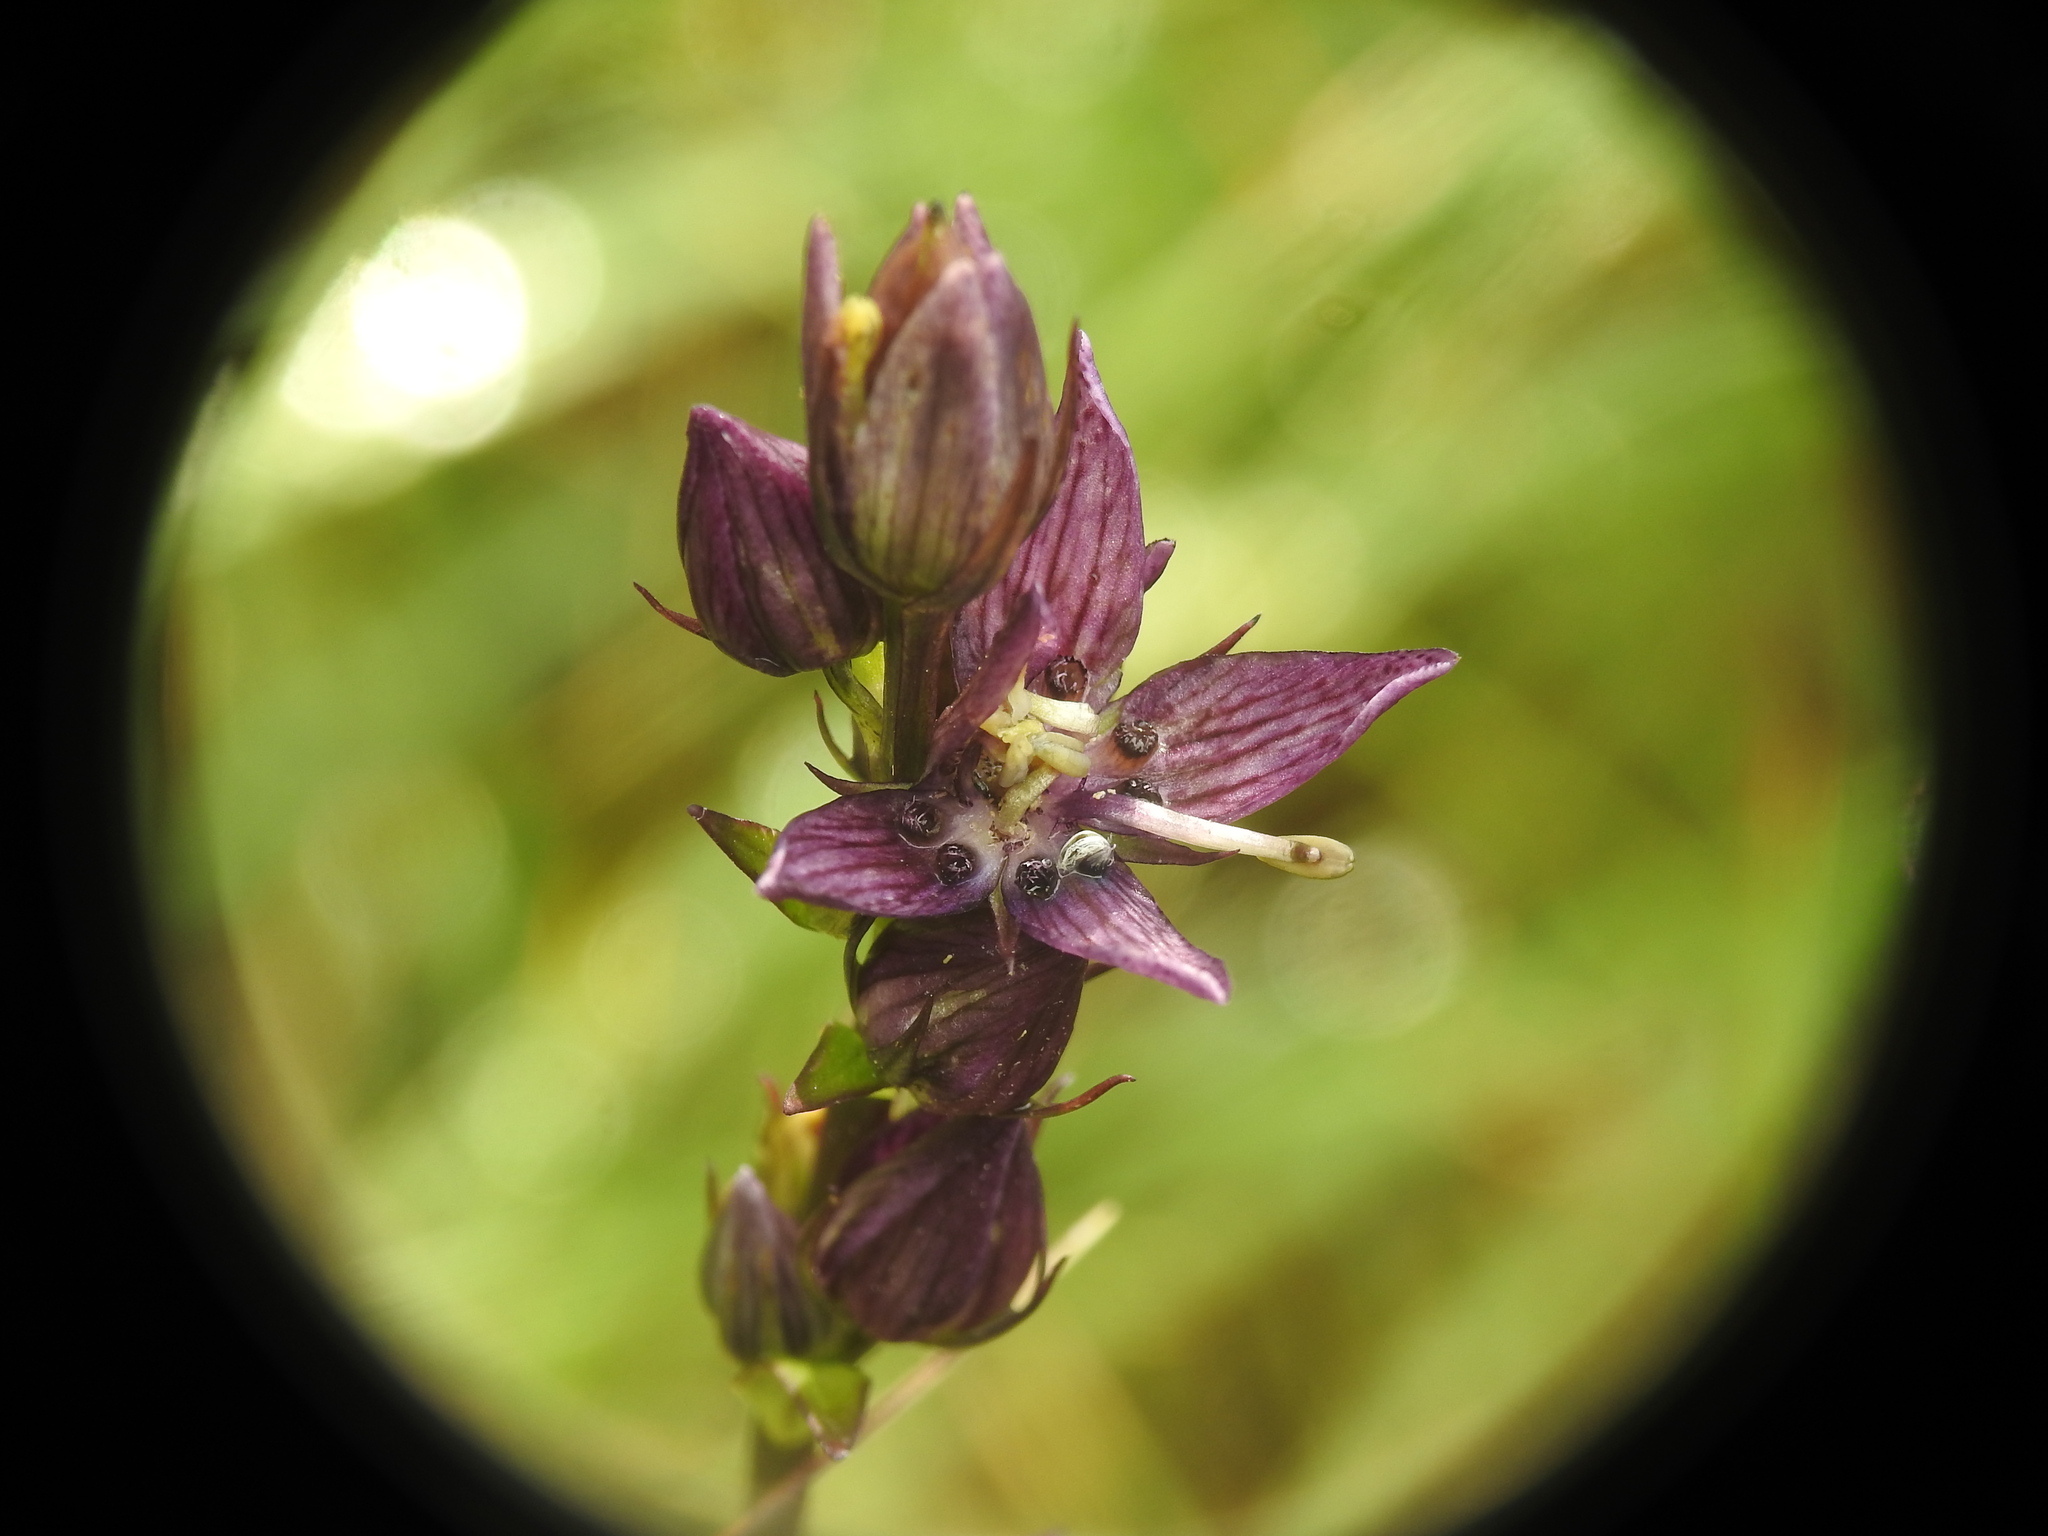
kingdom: Plantae
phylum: Tracheophyta
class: Magnoliopsida
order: Gentianales
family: Gentianaceae
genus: Swertia
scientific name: Swertia perennis
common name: Alpine bog swertia
